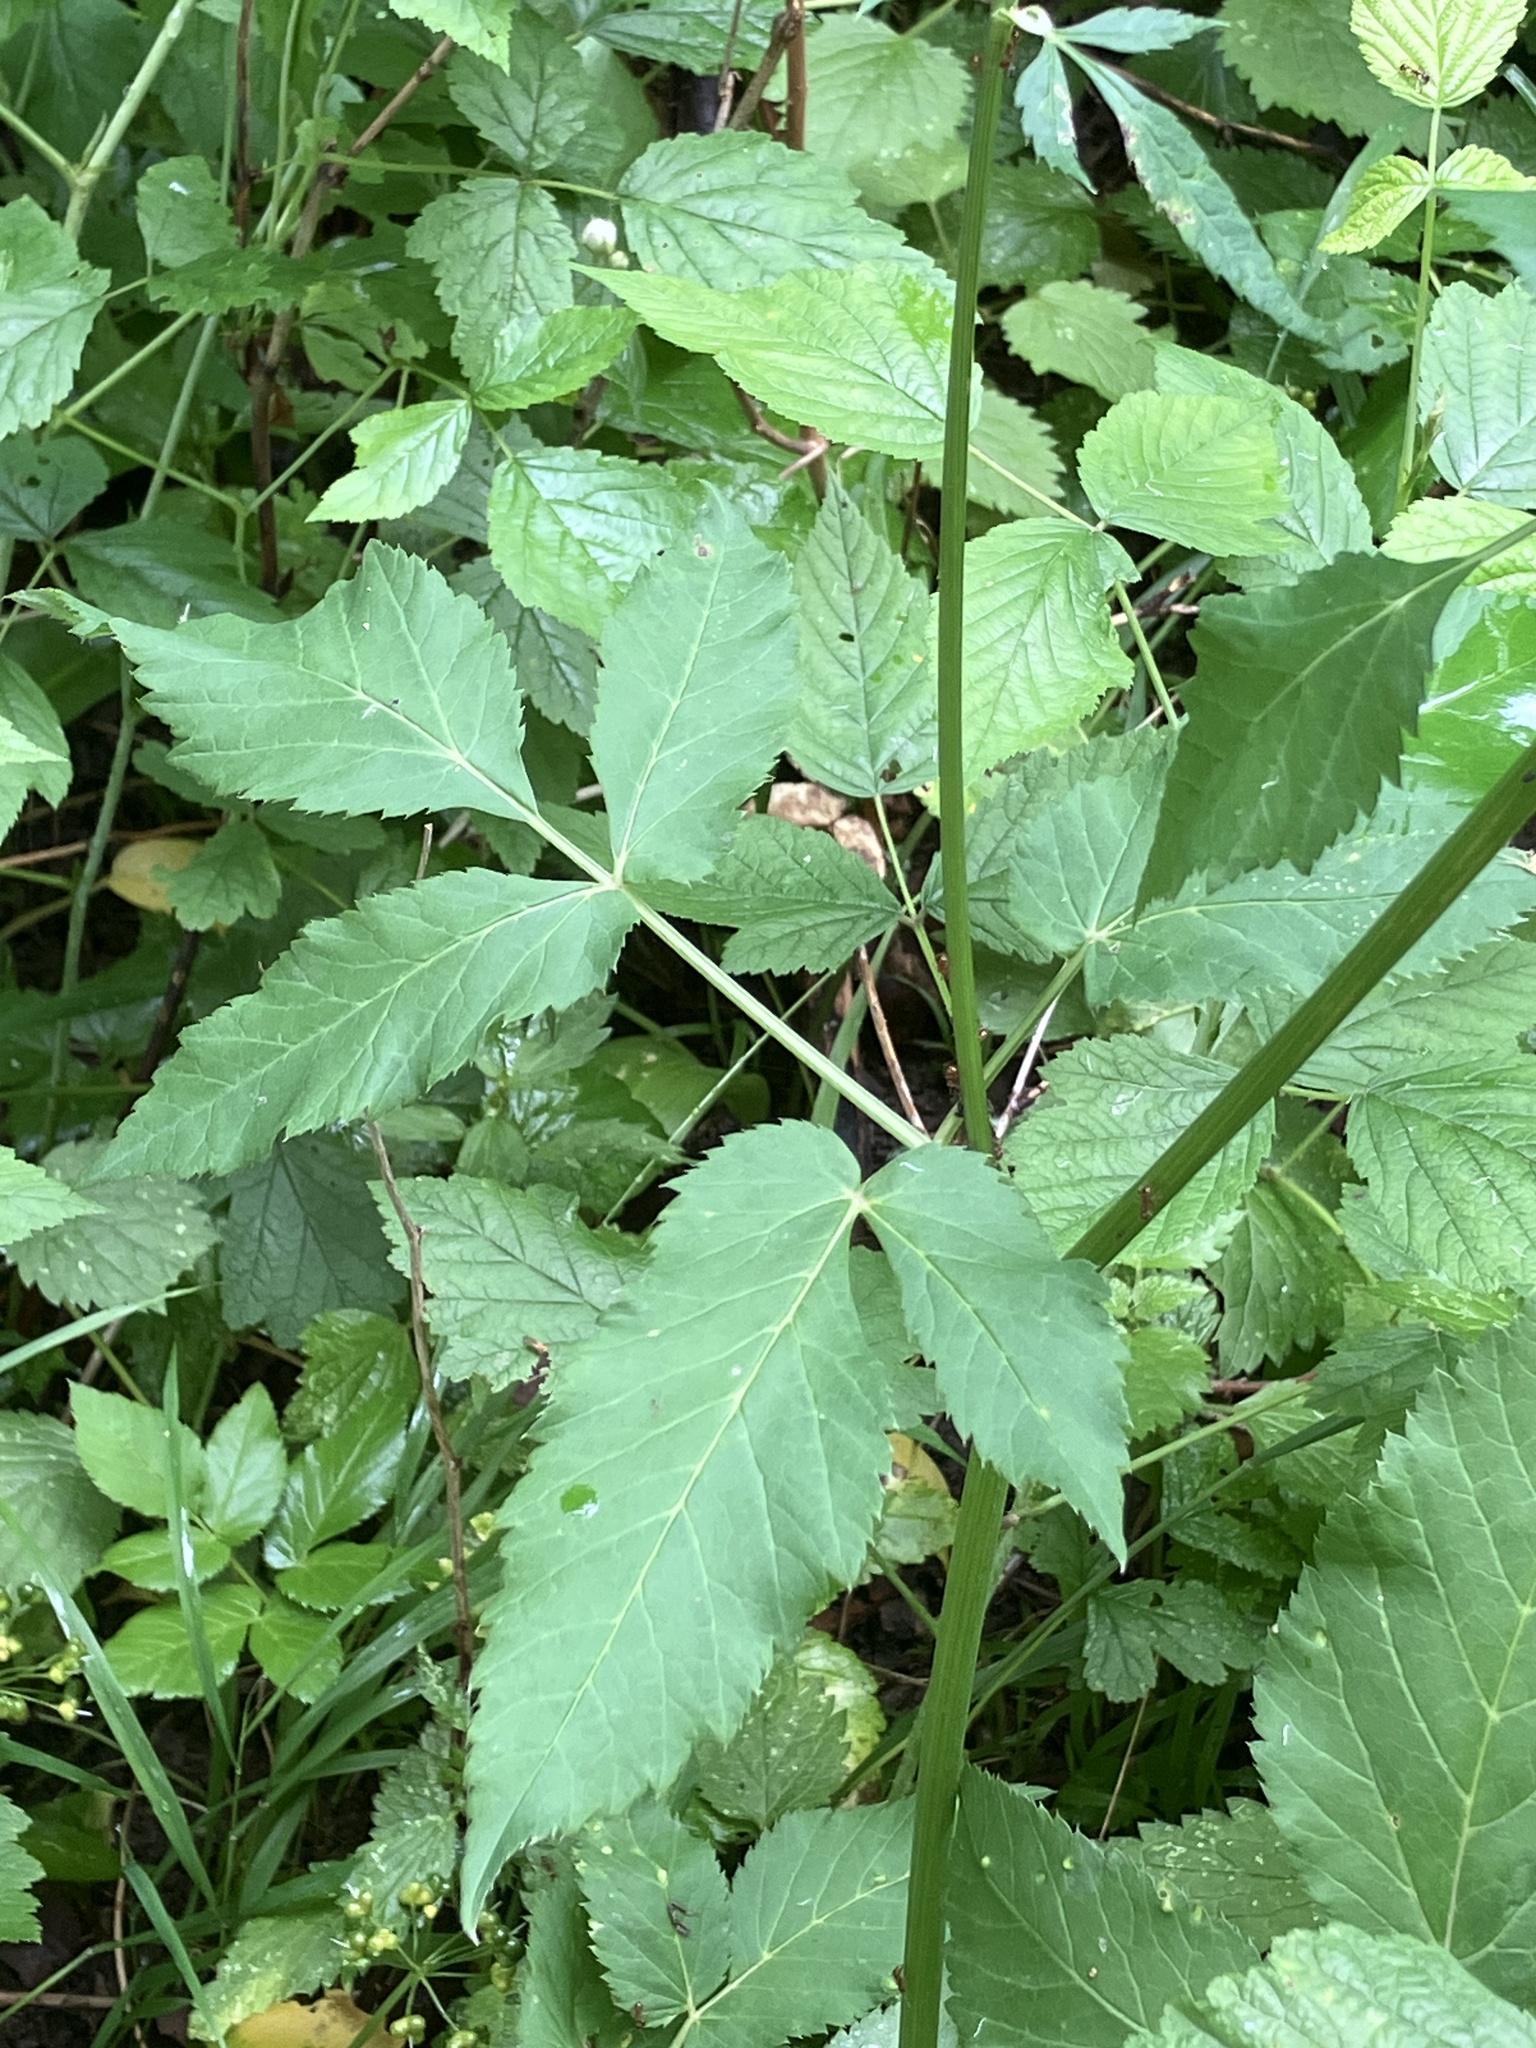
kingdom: Plantae
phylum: Tracheophyta
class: Magnoliopsida
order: Apiales
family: Apiaceae
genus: Aegopodium
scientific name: Aegopodium podagraria
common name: Ground-elder
